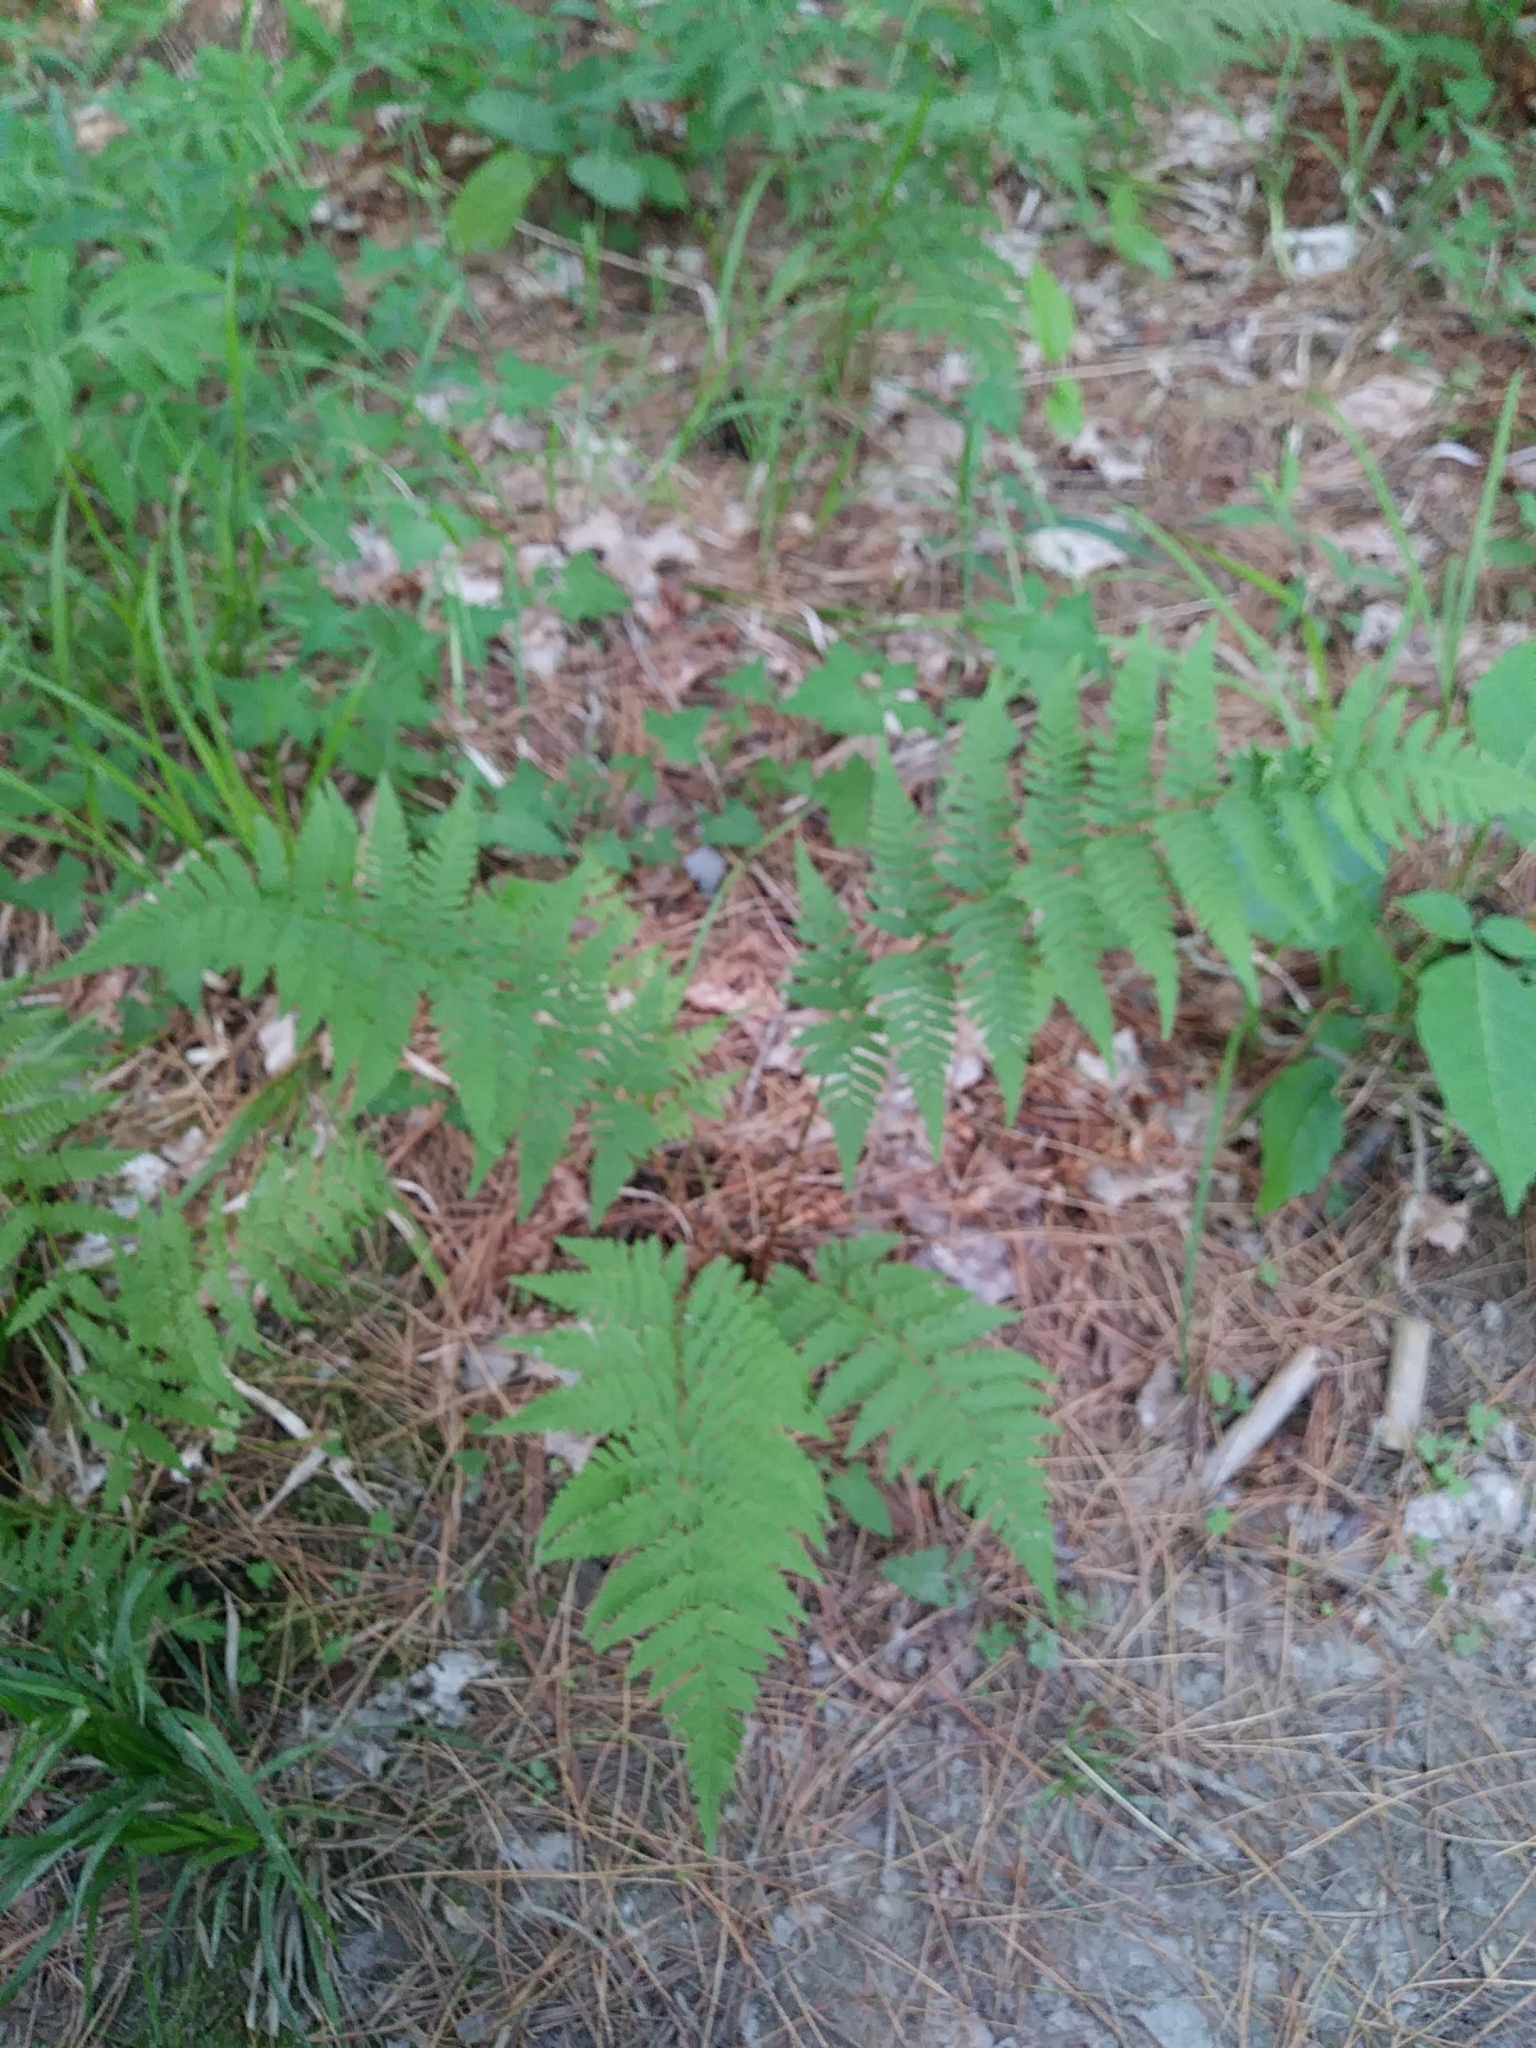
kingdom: Plantae
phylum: Tracheophyta
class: Polypodiopsida
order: Polypodiales
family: Dryopteridaceae
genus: Dryopteris
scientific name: Dryopteris carthusiana
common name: Narrow buckler-fern
